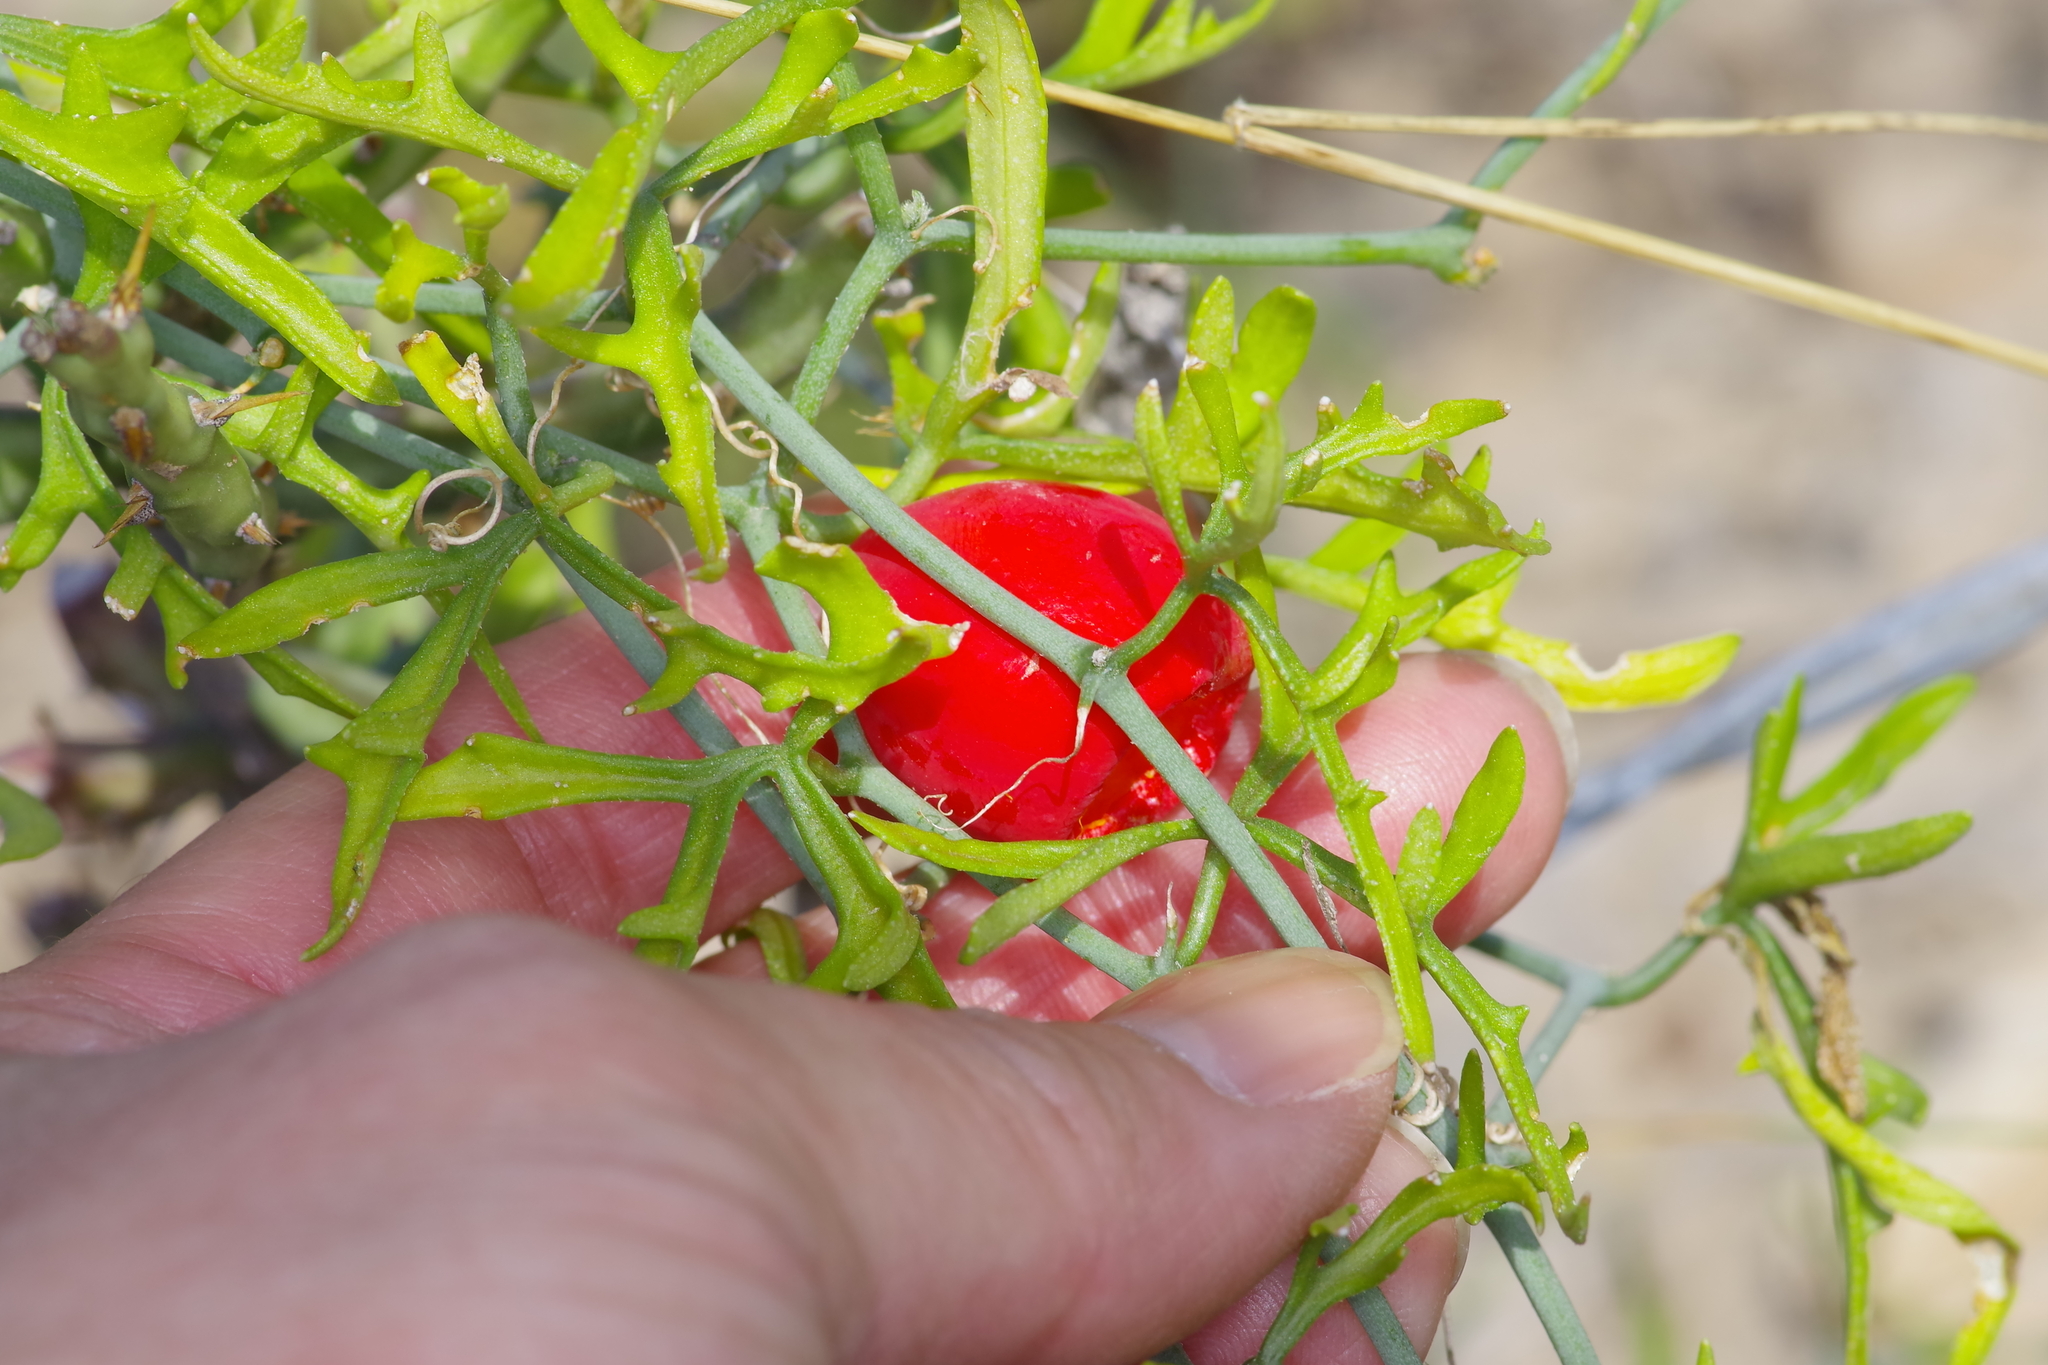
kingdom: Plantae
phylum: Tracheophyta
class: Magnoliopsida
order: Cucurbitales
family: Cucurbitaceae
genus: Ibervillea
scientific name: Ibervillea lindheimeri
